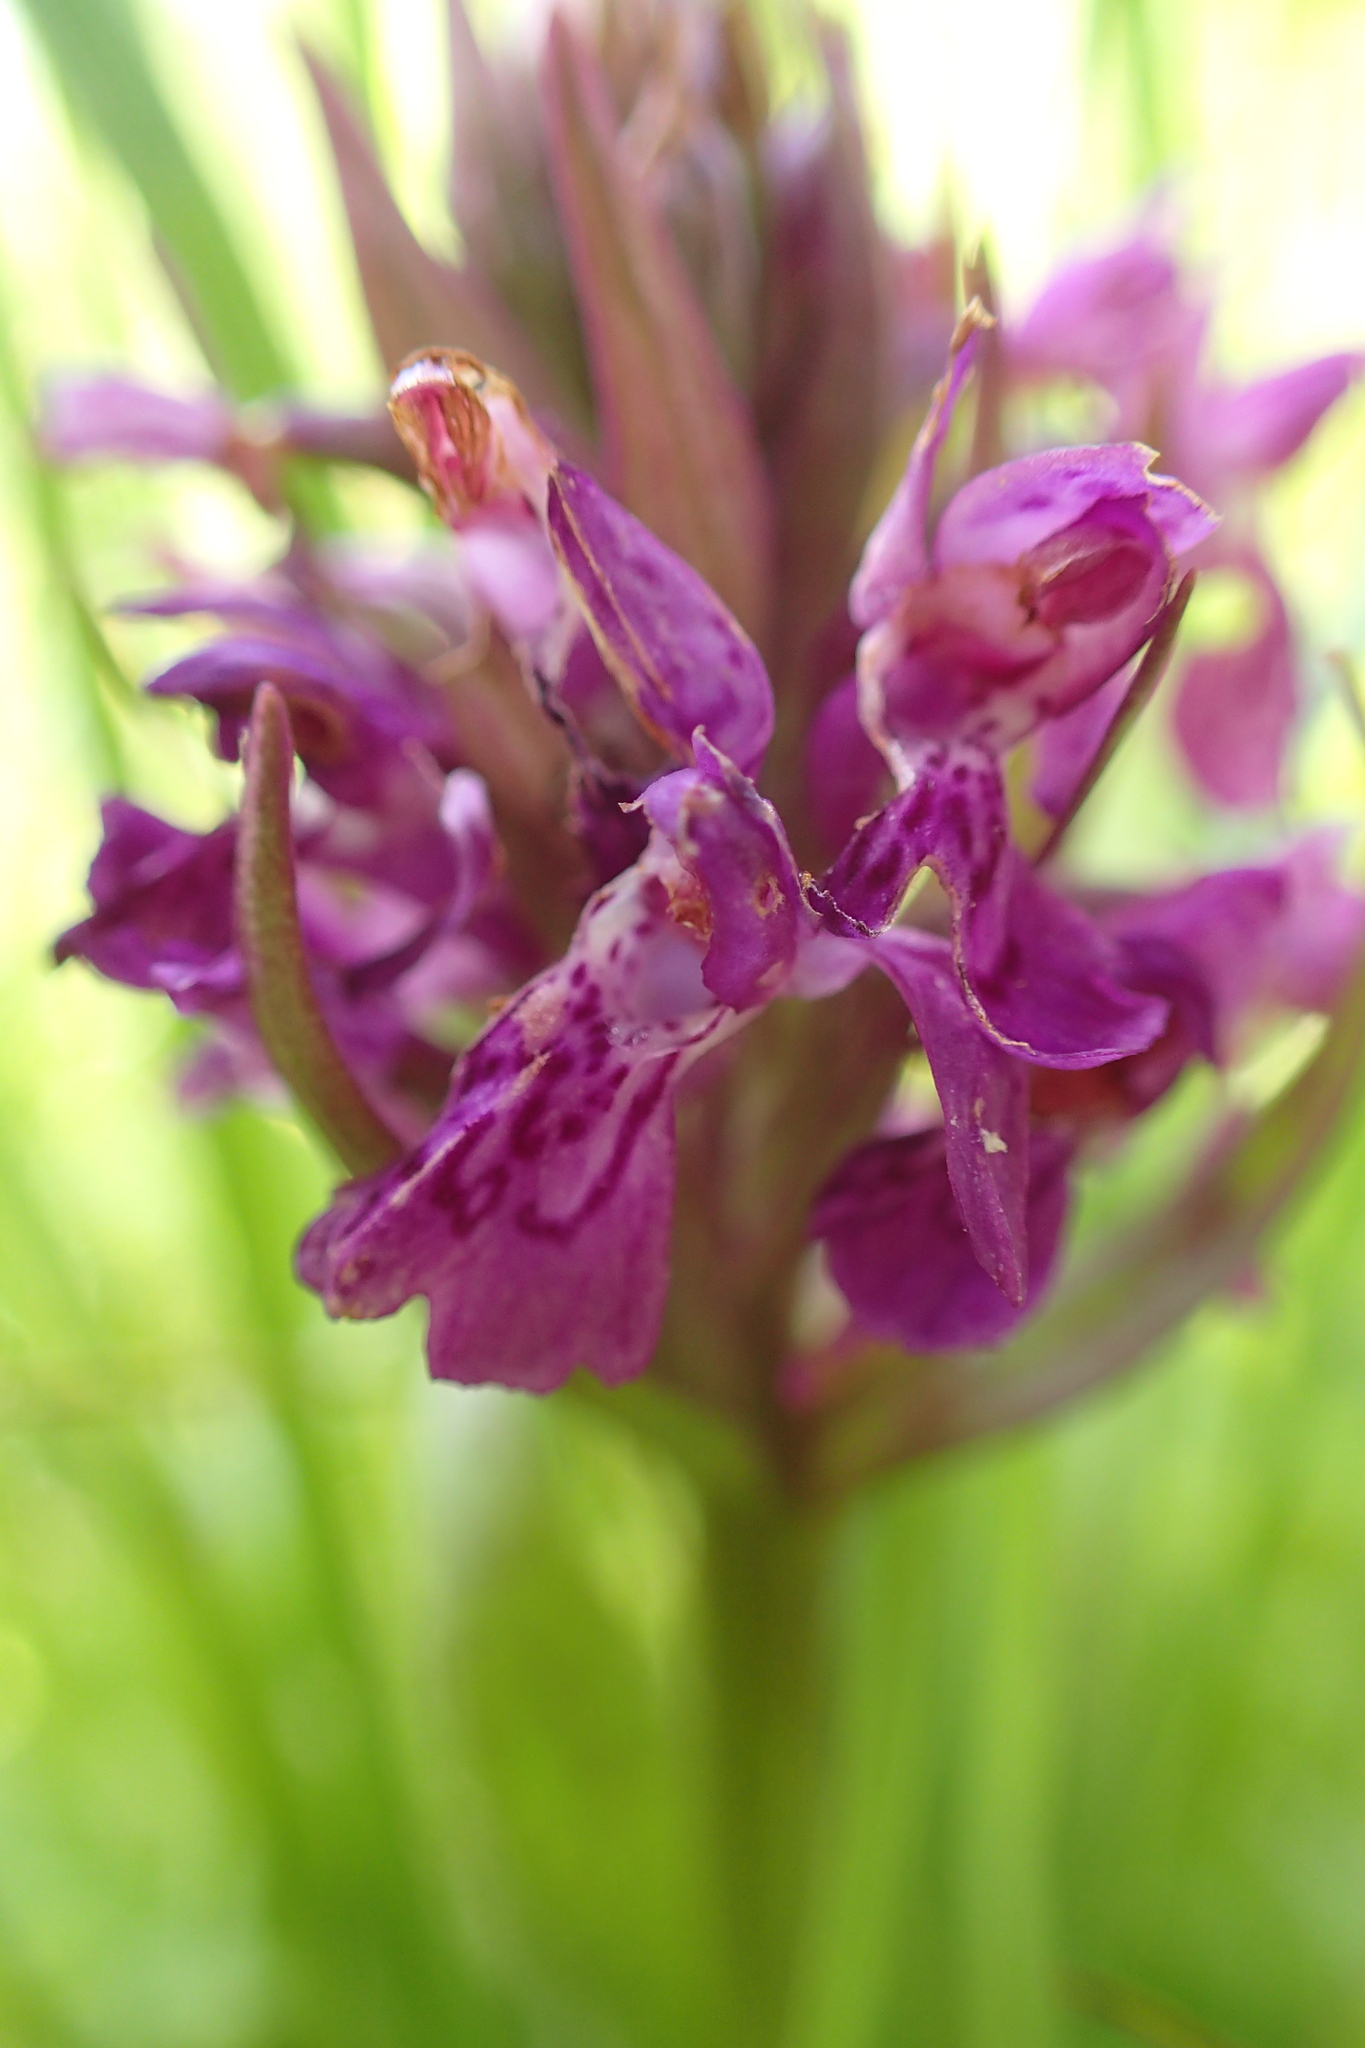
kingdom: Plantae
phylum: Tracheophyta
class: Liliopsida
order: Asparagales
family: Orchidaceae
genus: Dactylorhiza
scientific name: Dactylorhiza majalis
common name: Marsh orchid
